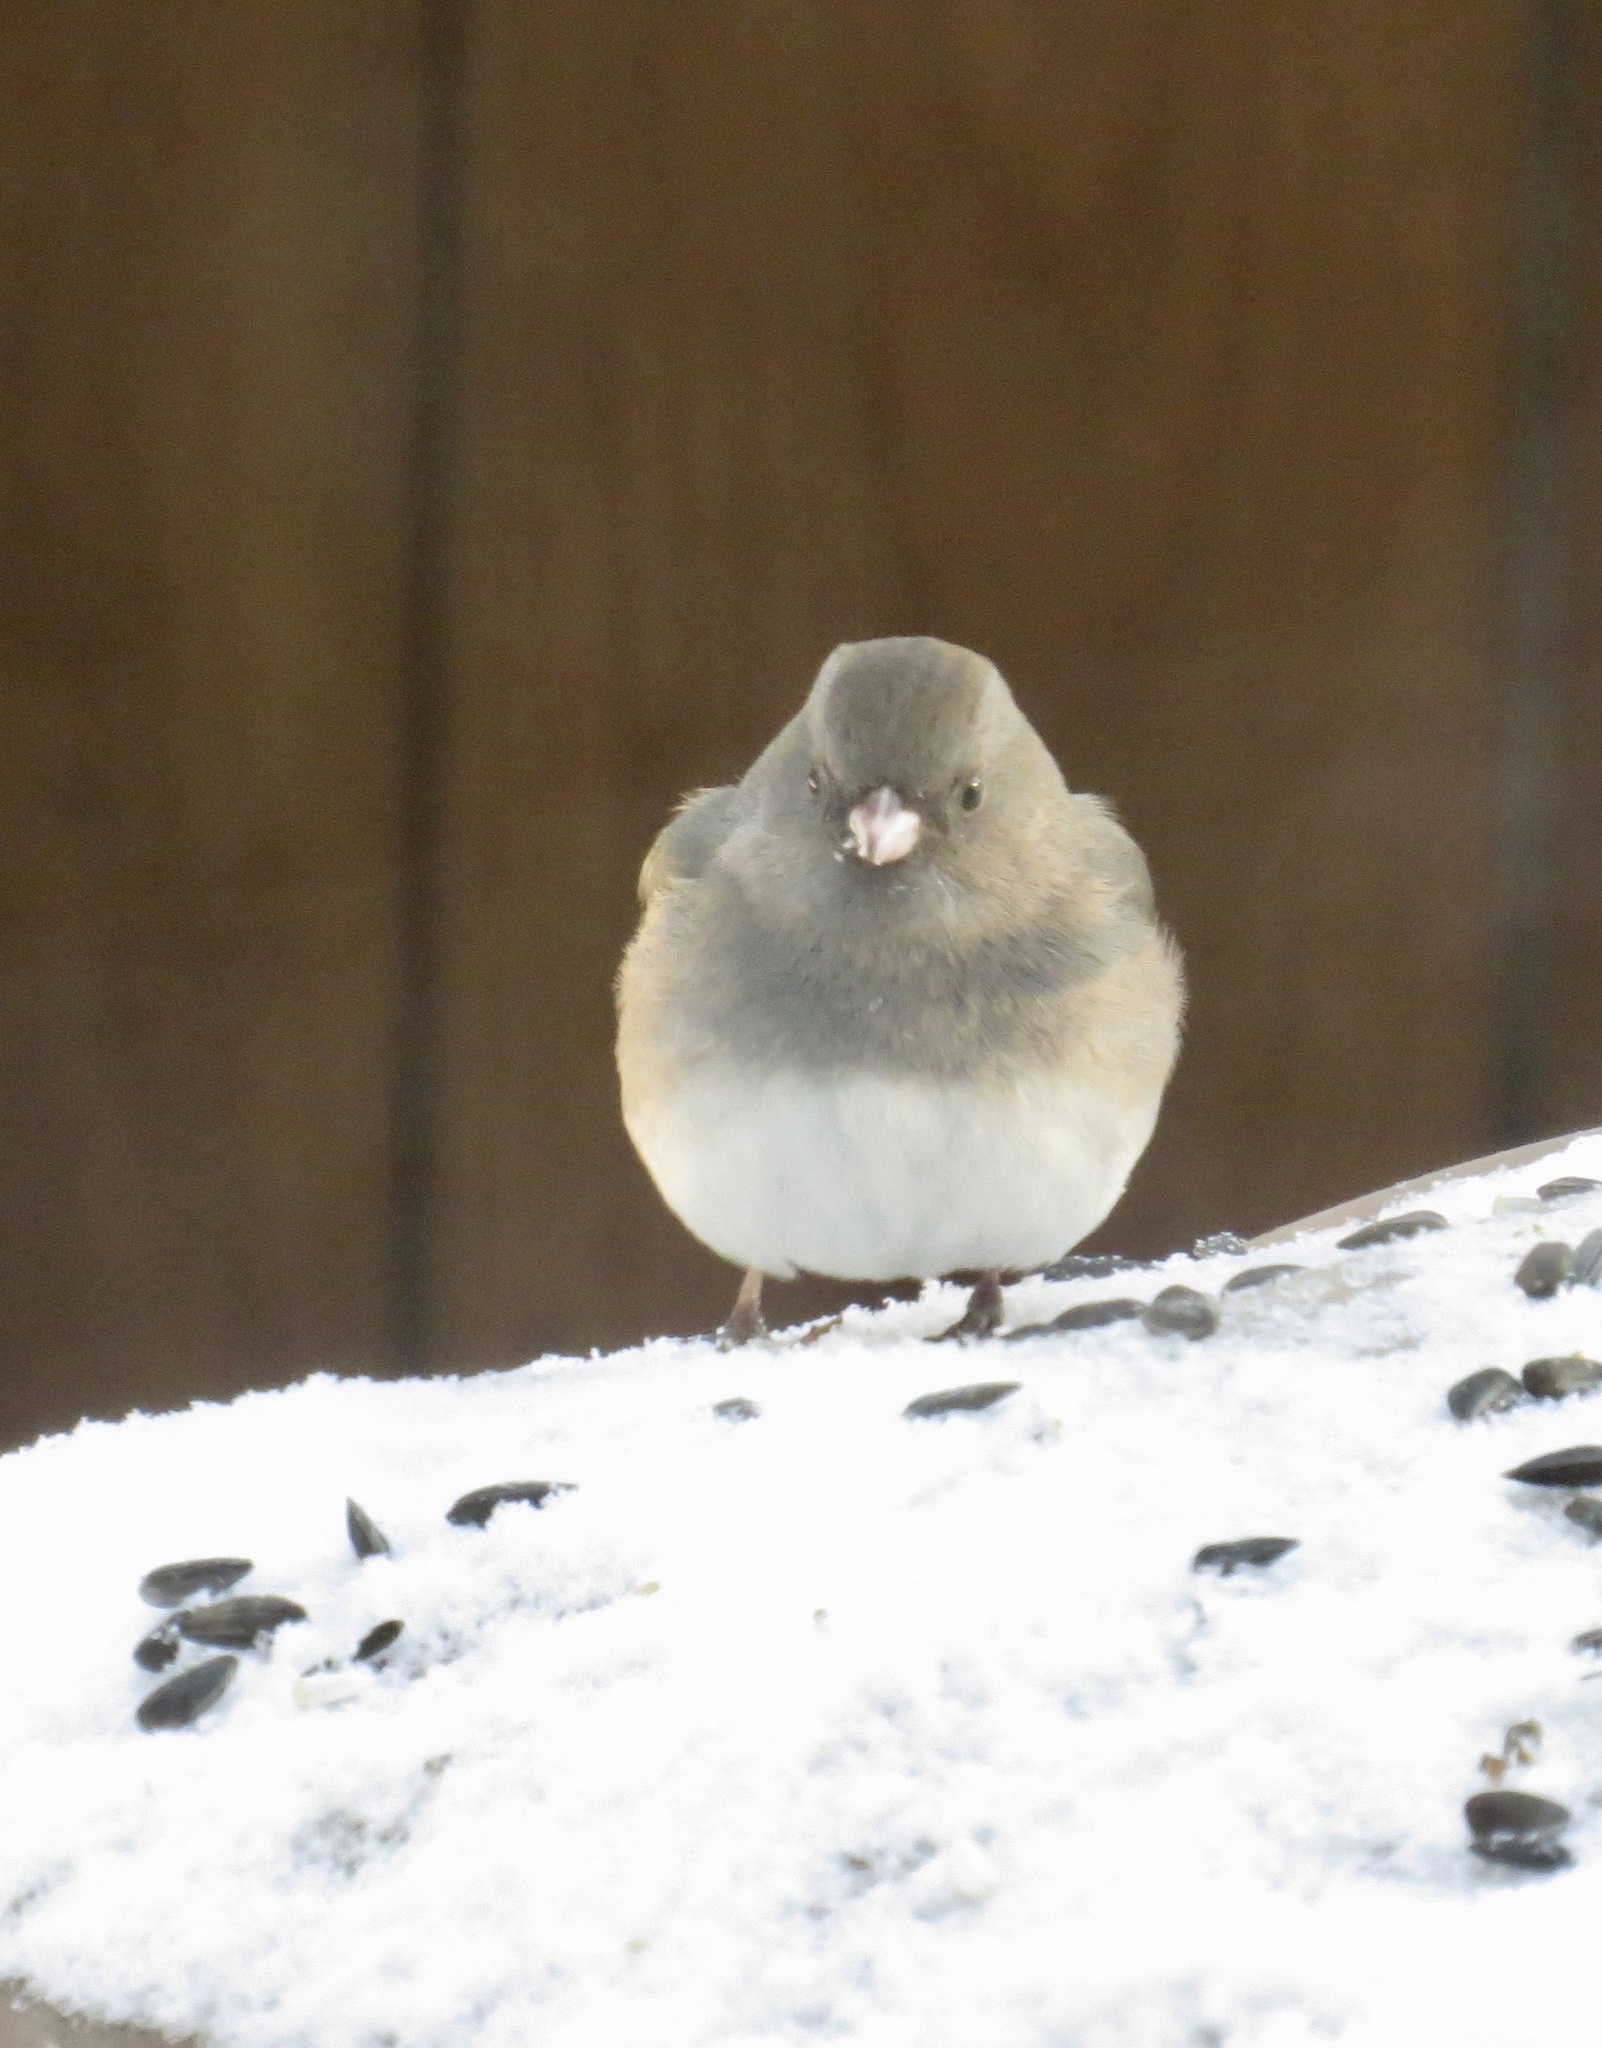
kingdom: Animalia
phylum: Chordata
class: Aves
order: Passeriformes
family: Passerellidae
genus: Junco
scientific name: Junco hyemalis
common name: Dark-eyed junco
